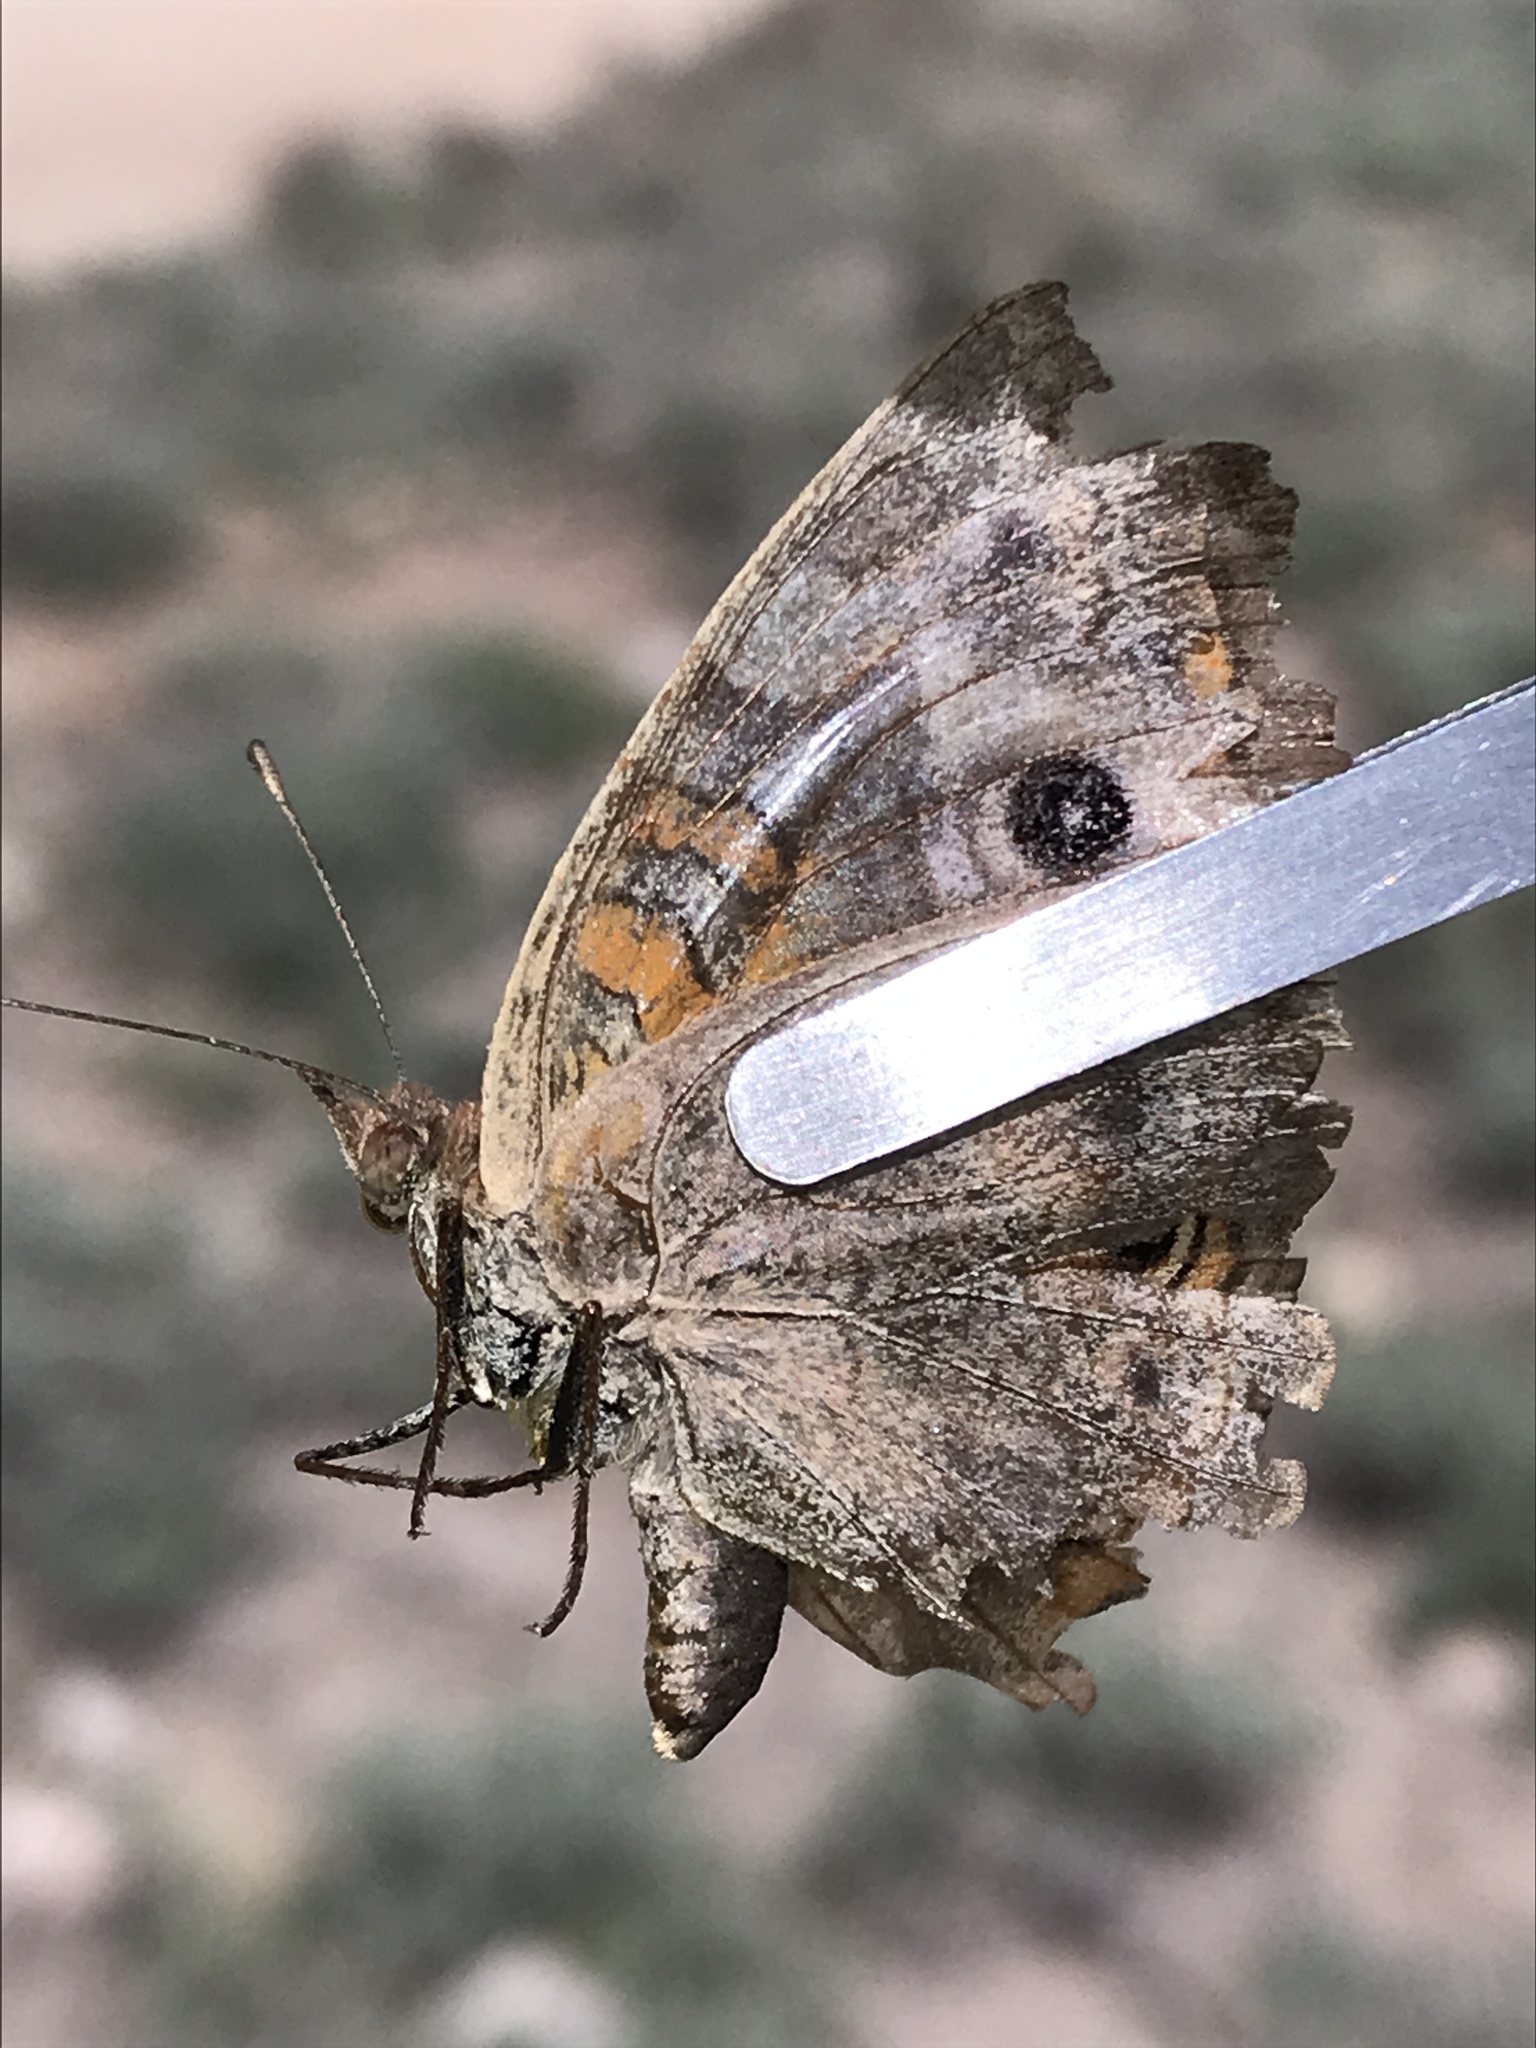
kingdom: Animalia
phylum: Arthropoda
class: Insecta
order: Lepidoptera
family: Nymphalidae
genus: Junonia
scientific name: Junonia grisea
